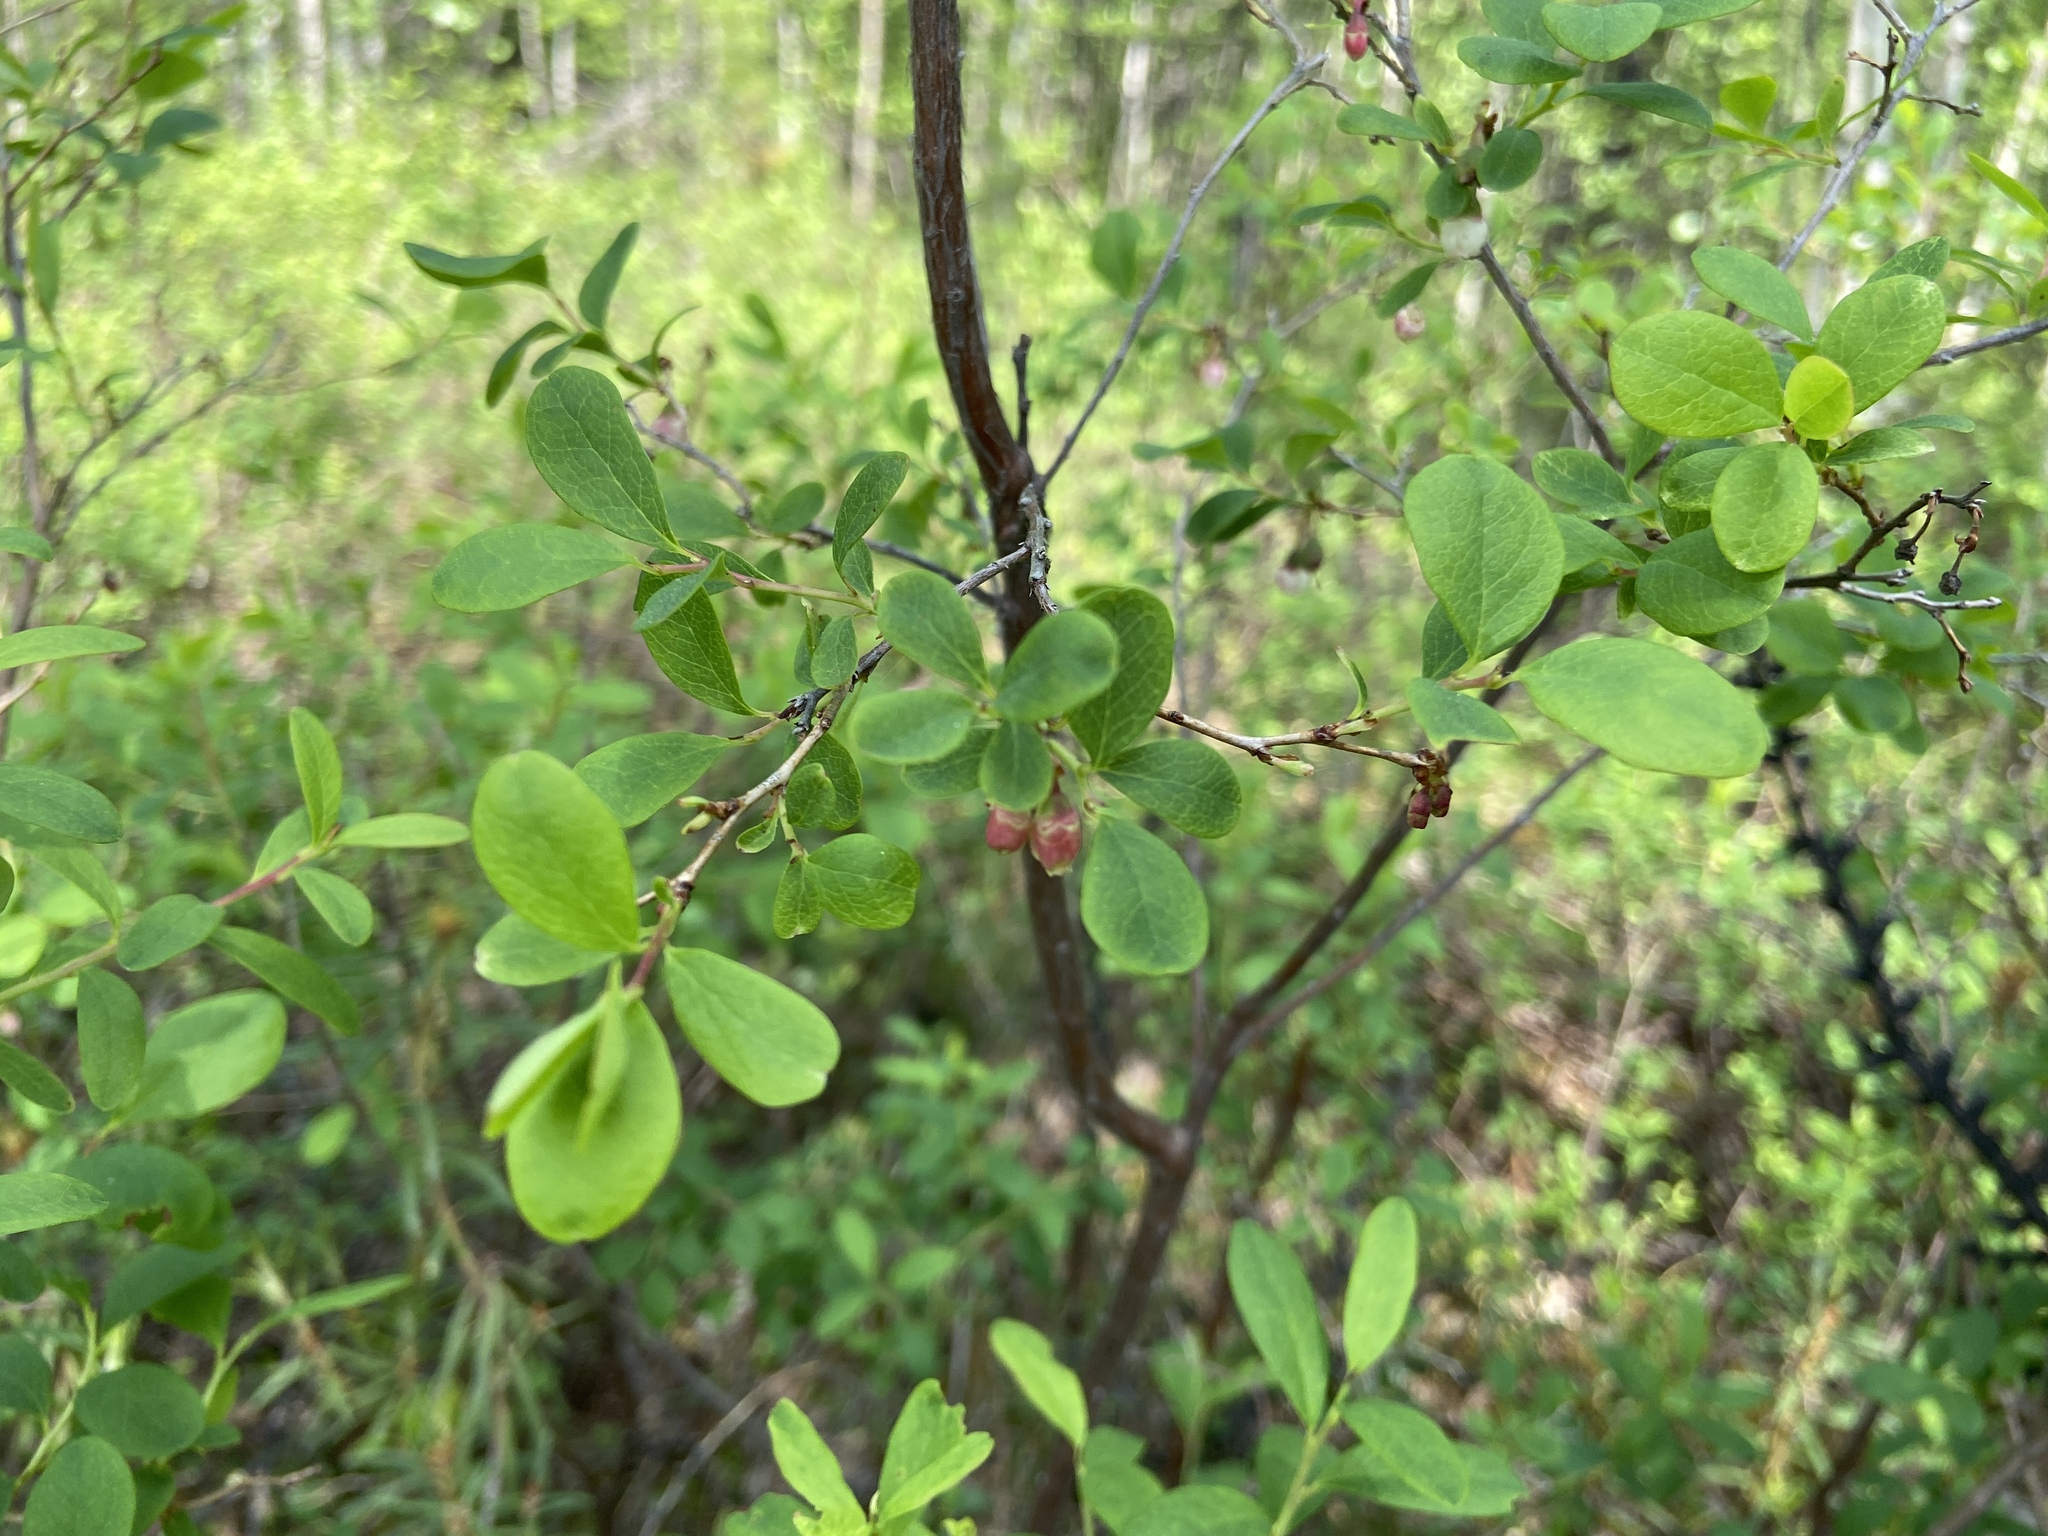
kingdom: Plantae
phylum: Tracheophyta
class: Magnoliopsida
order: Ericales
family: Ericaceae
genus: Vaccinium
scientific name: Vaccinium uliginosum
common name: Bog bilberry
